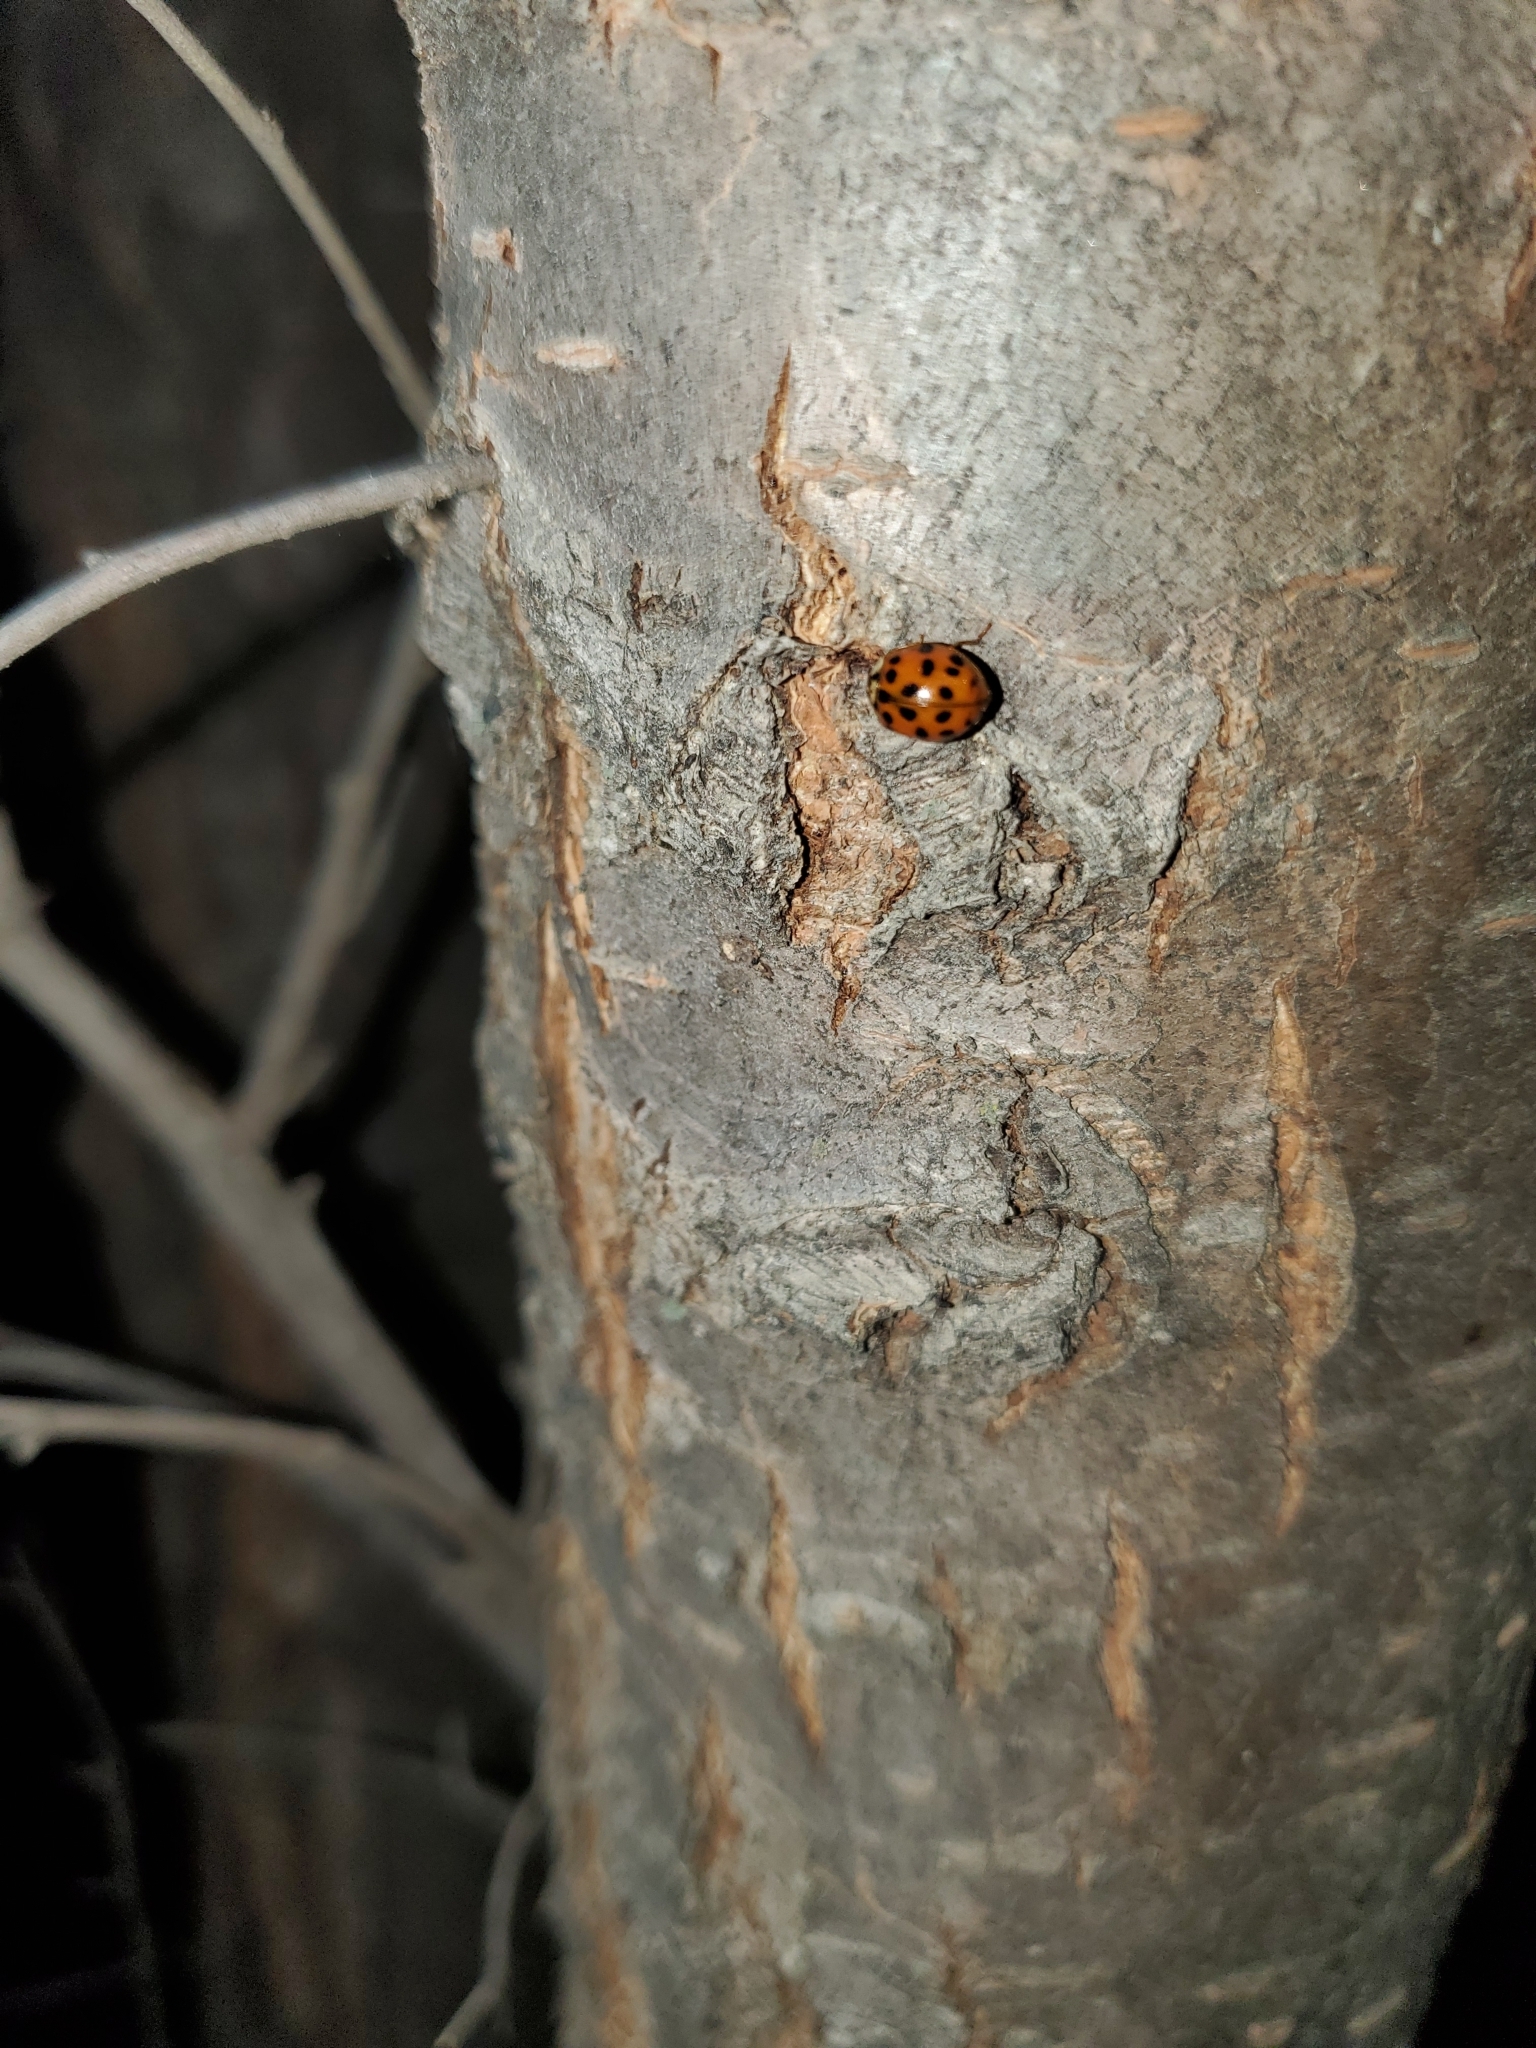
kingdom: Animalia
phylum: Arthropoda
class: Insecta
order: Coleoptera
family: Coccinellidae
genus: Harmonia
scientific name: Harmonia axyridis
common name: Harlequin ladybird
